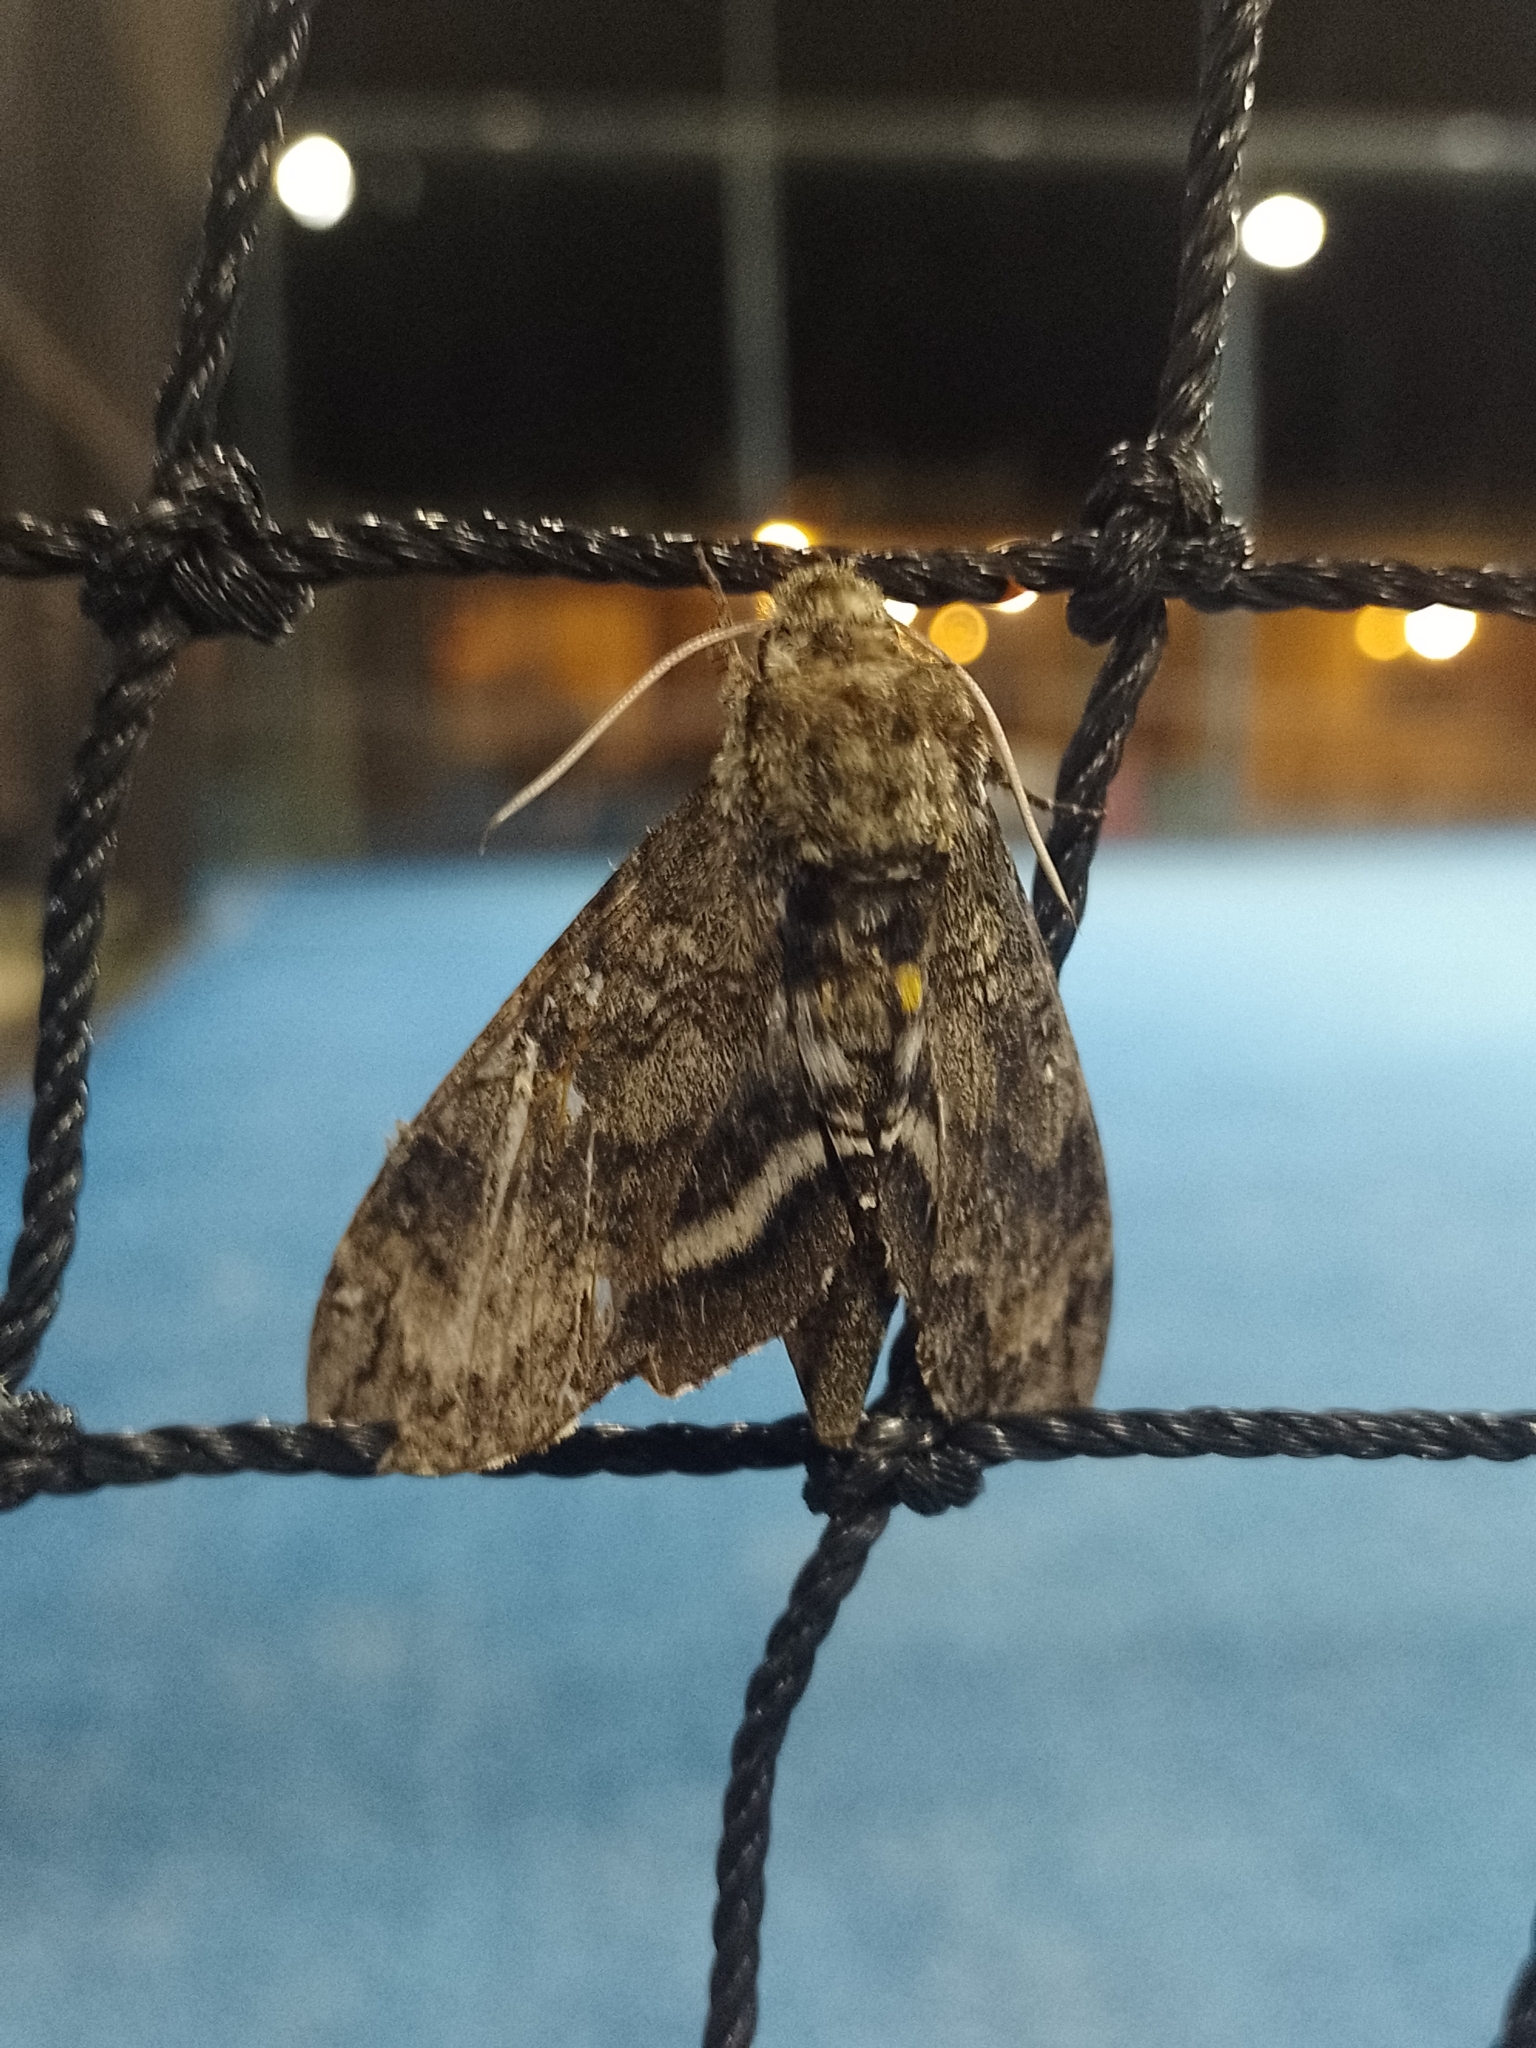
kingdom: Animalia
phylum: Arthropoda
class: Insecta
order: Lepidoptera
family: Sphingidae
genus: Manduca
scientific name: Manduca diffissa
